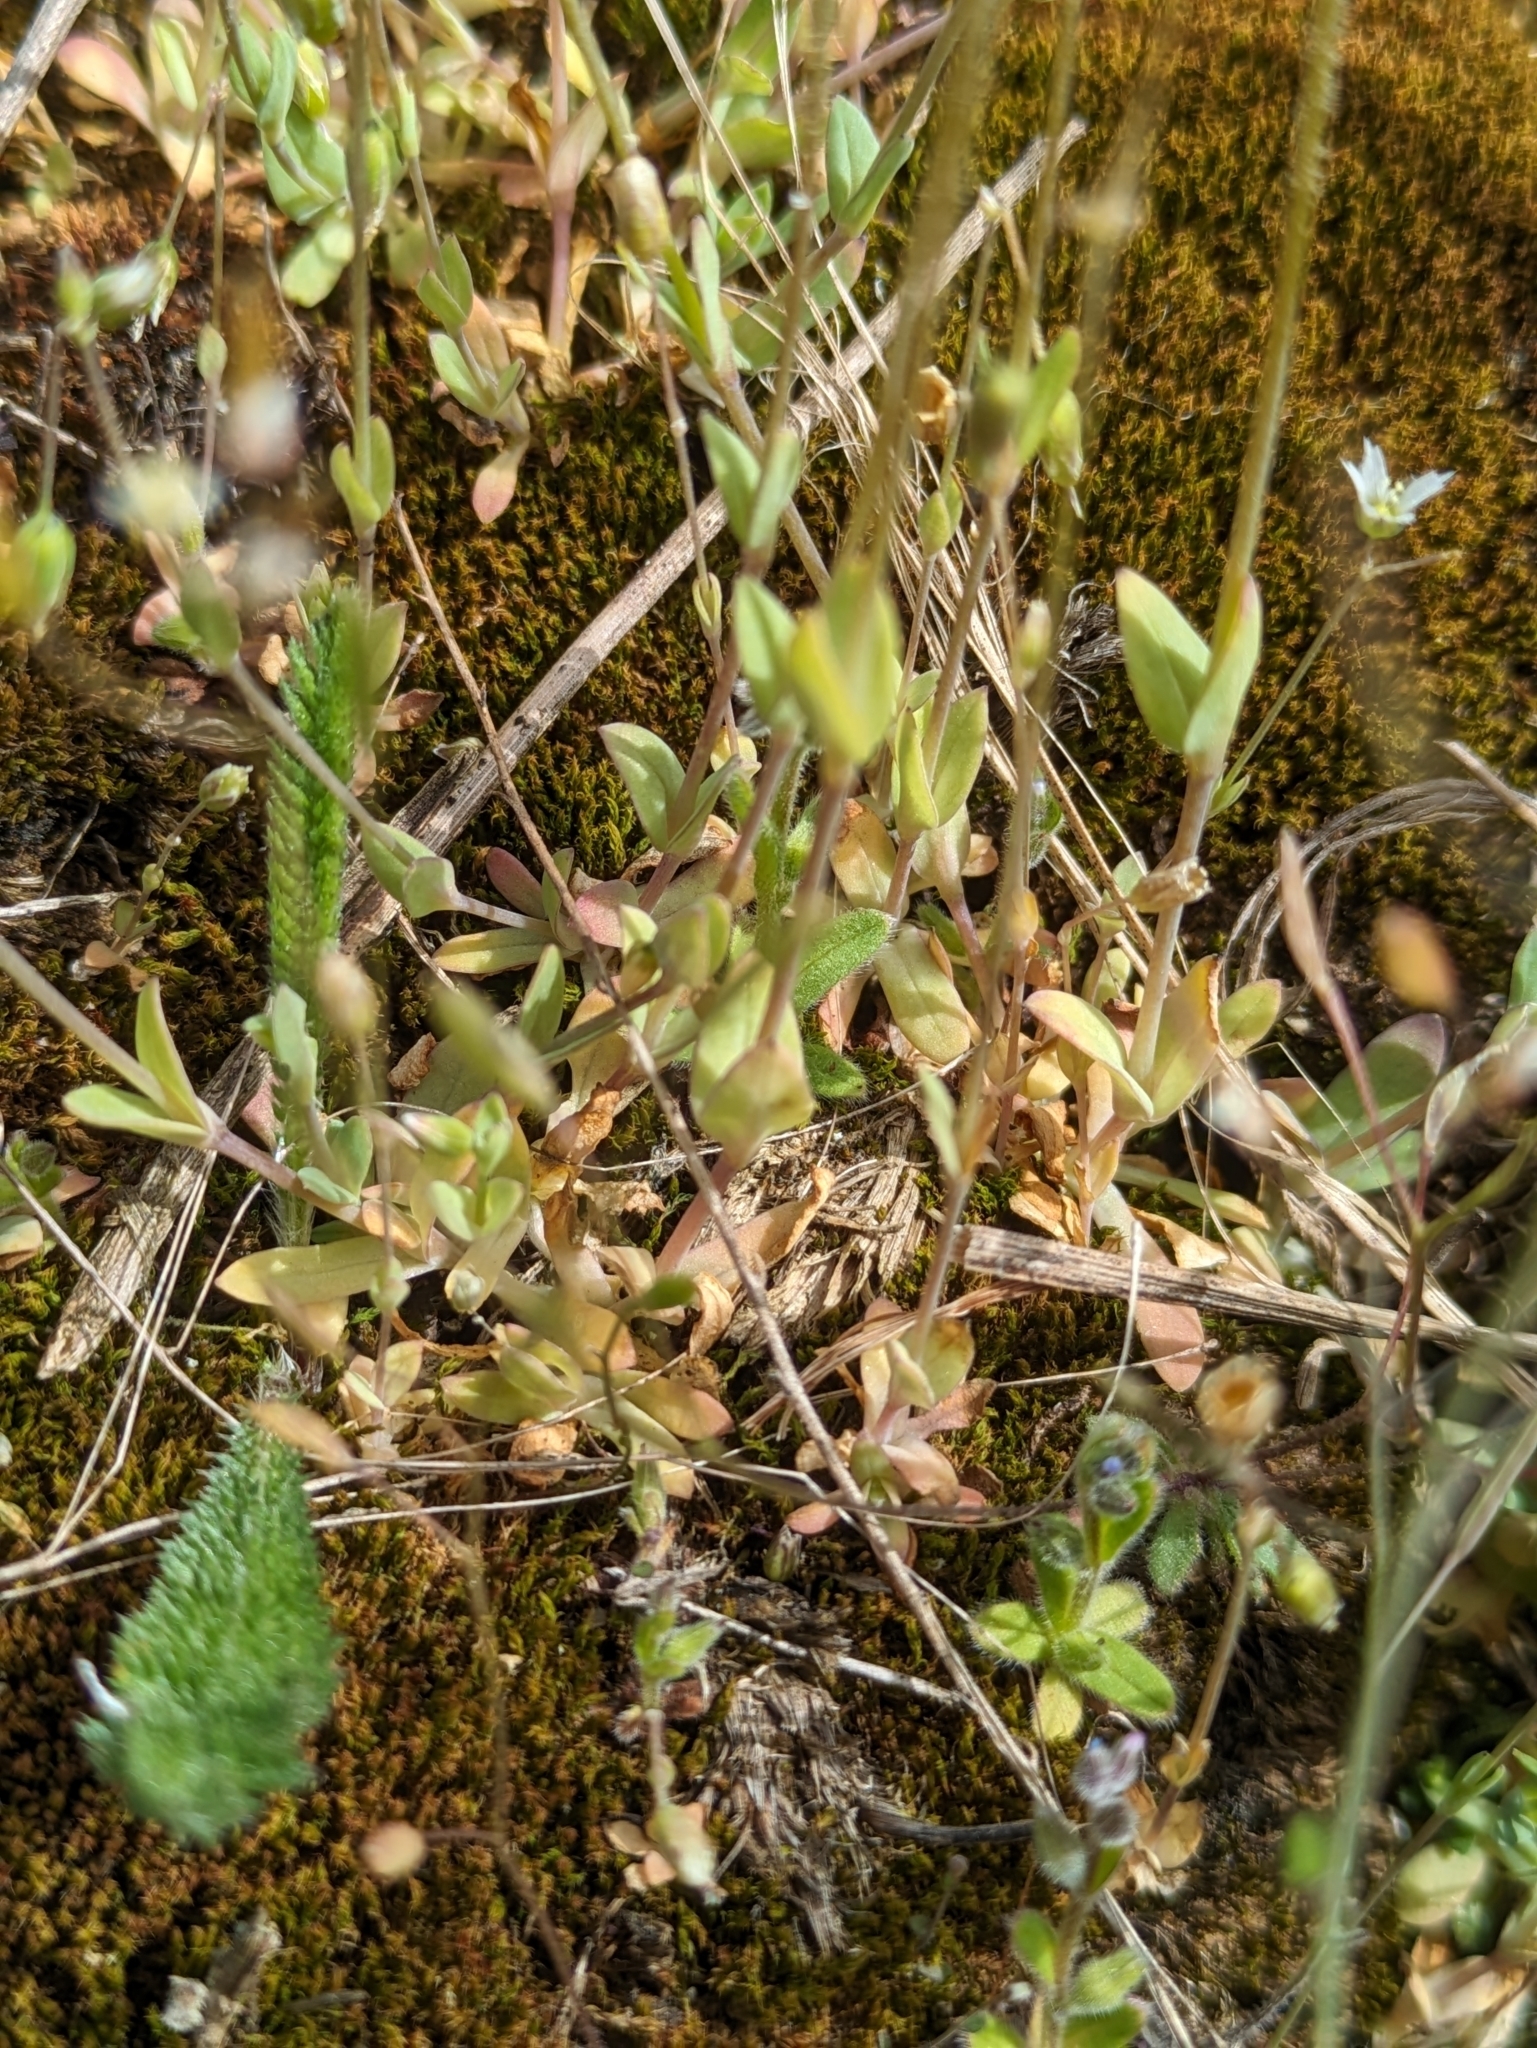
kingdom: Plantae
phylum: Tracheophyta
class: Magnoliopsida
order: Caryophyllales
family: Caryophyllaceae
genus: Holosteum
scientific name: Holosteum umbellatum
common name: Jagged chickweed
